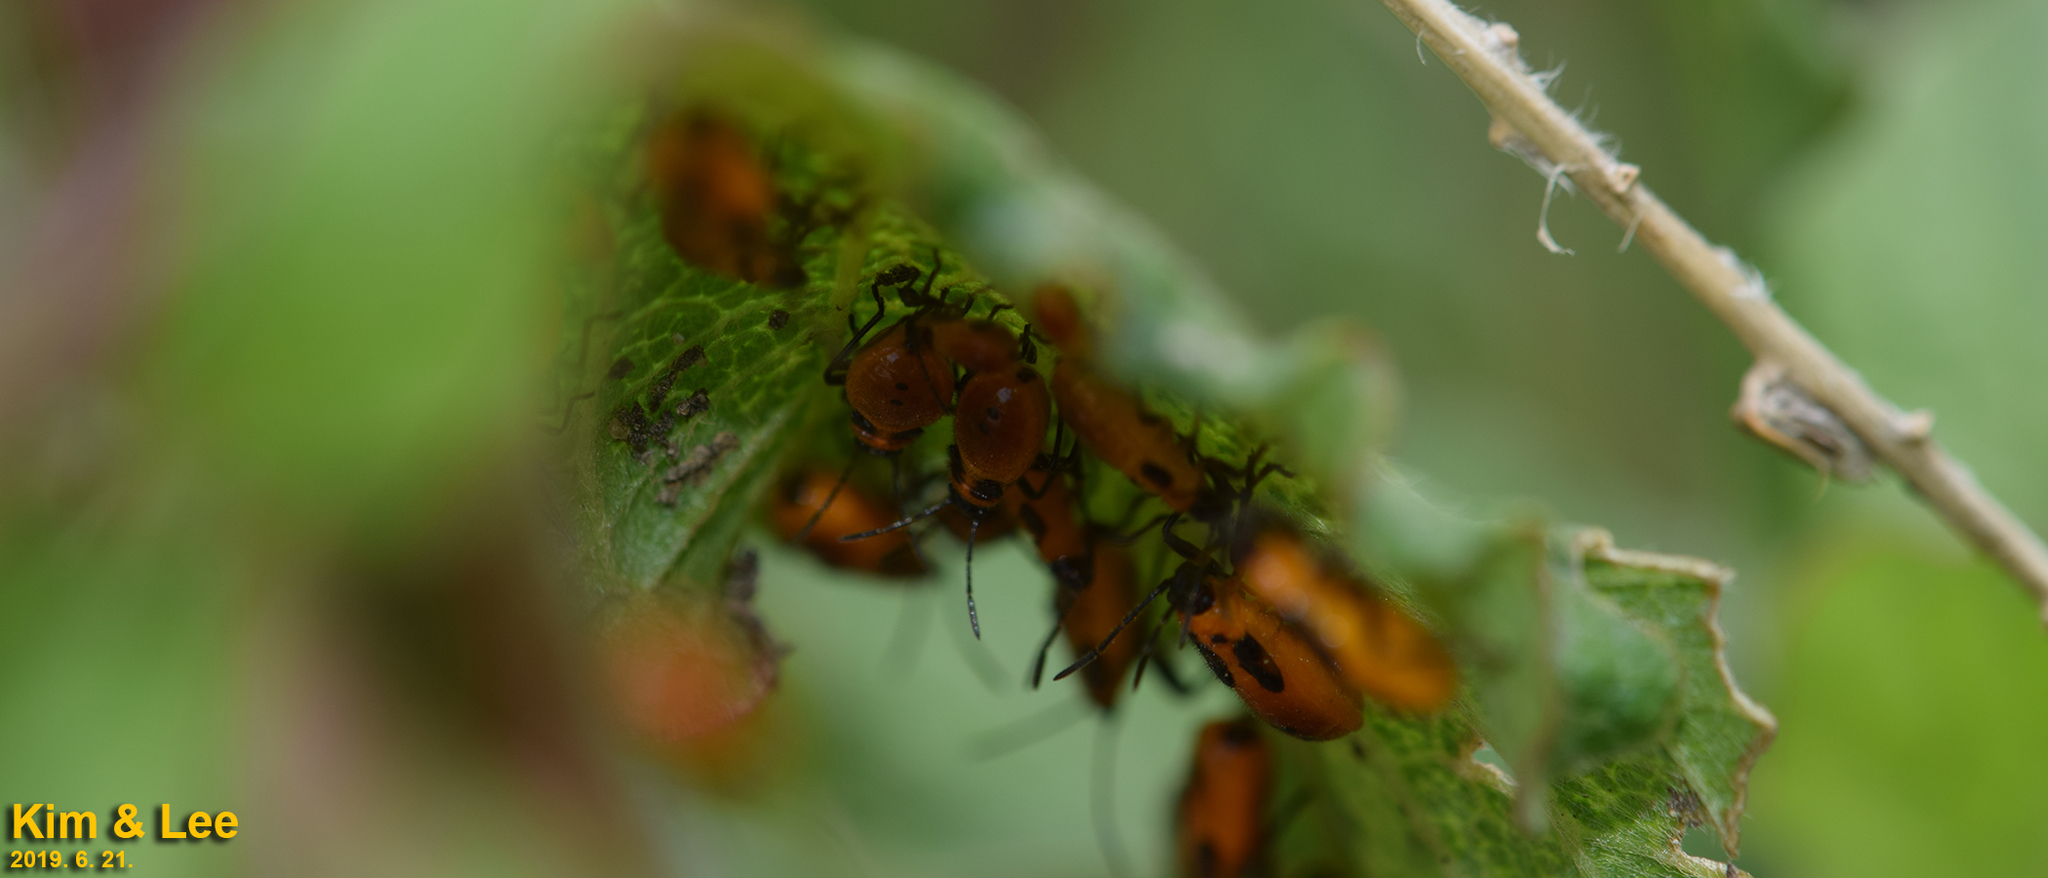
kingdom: Animalia
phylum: Arthropoda
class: Insecta
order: Hemiptera
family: Lygaeidae
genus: Tropidothorax
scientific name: Tropidothorax cruciger
